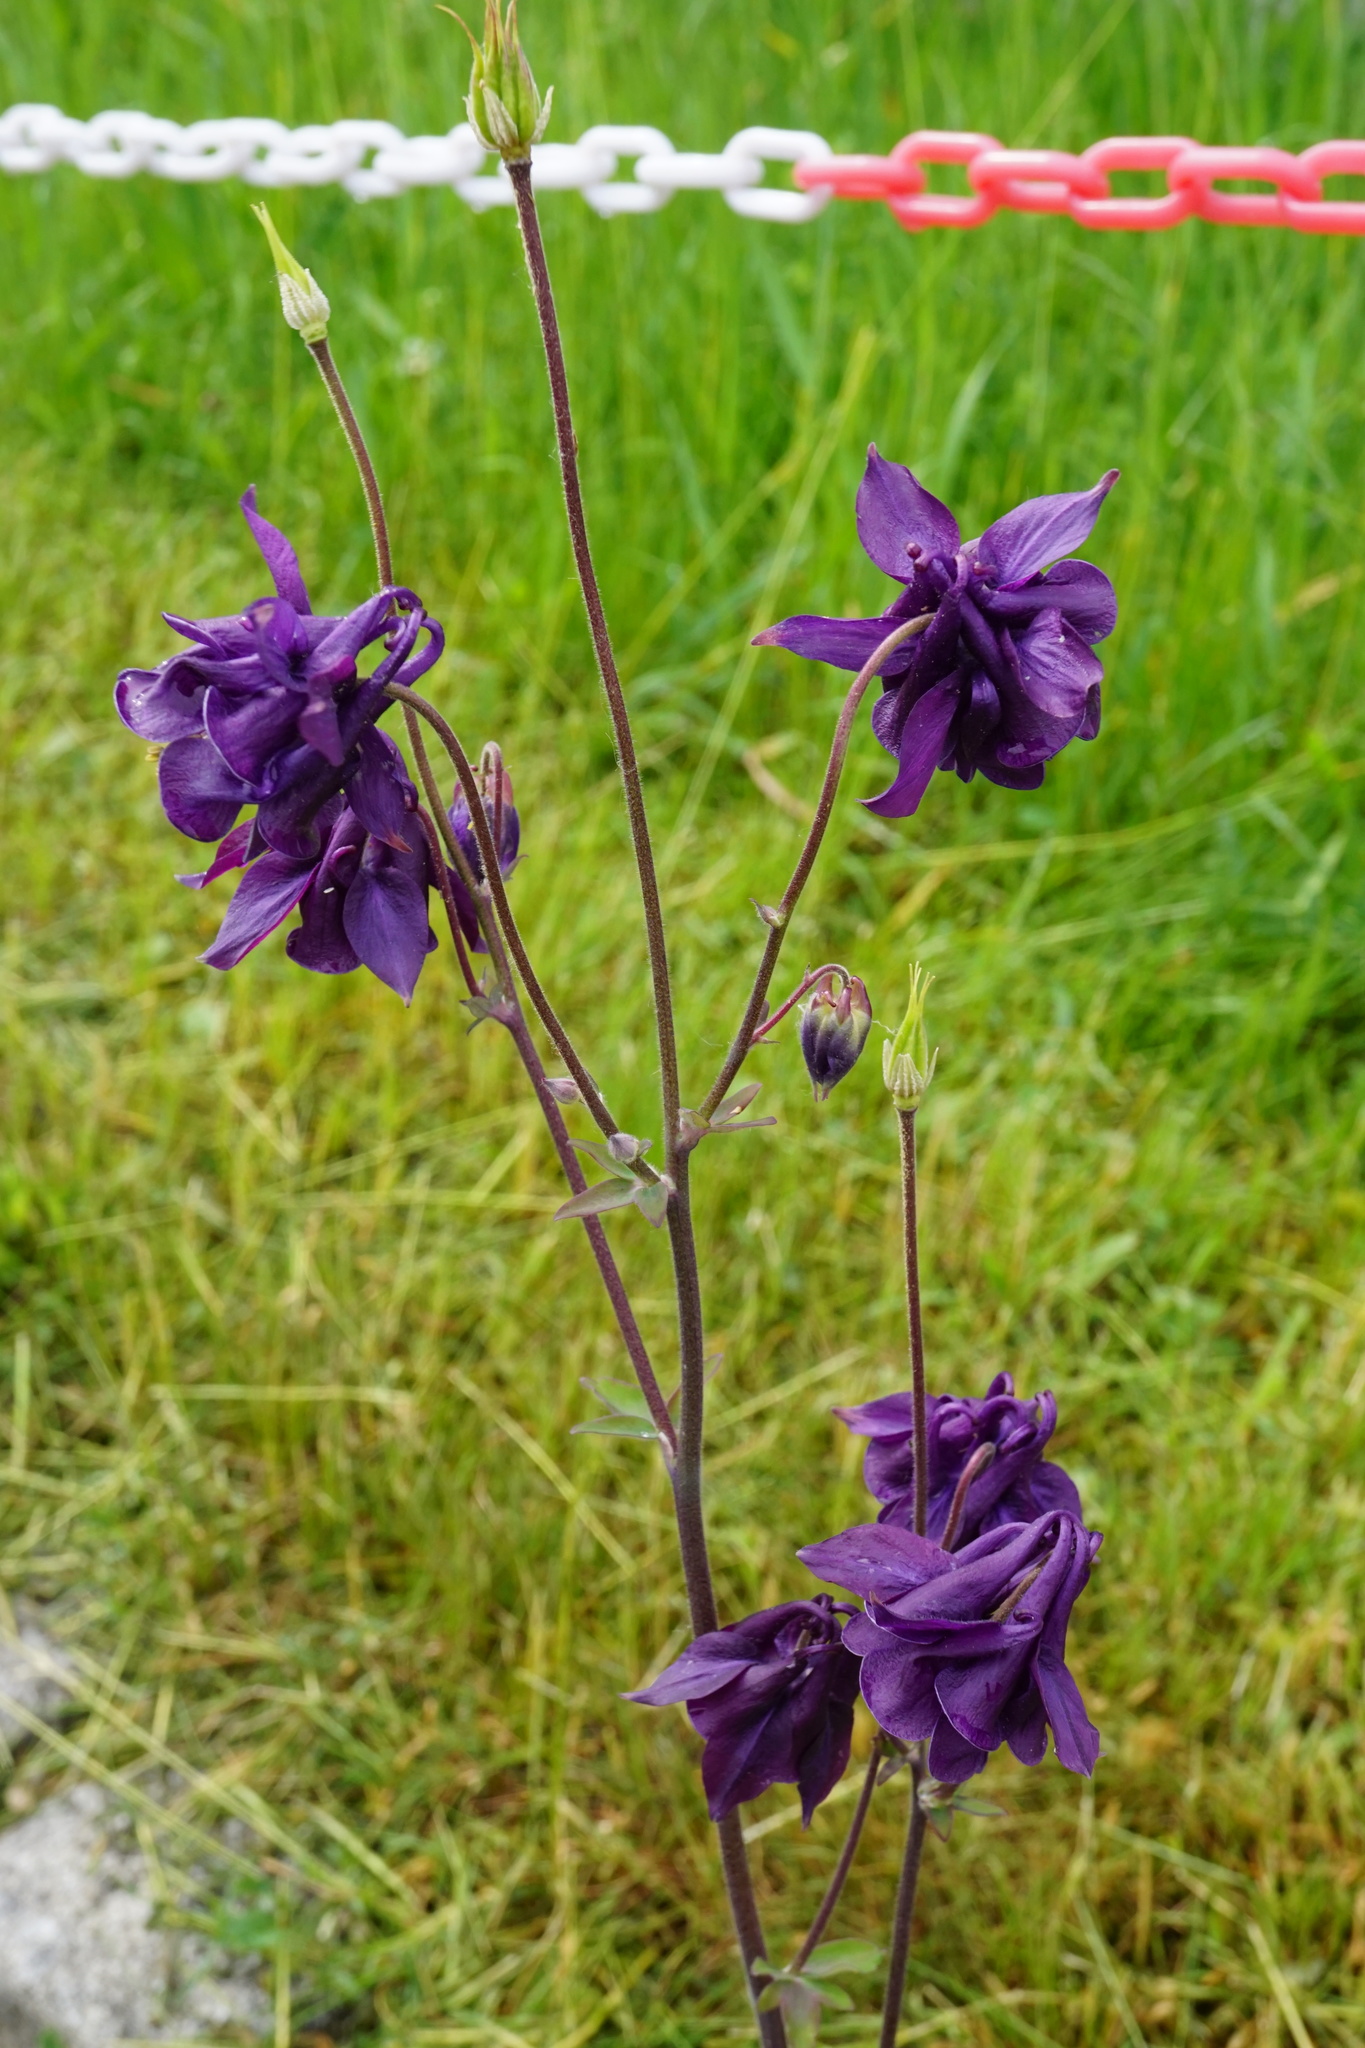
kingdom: Plantae
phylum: Tracheophyta
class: Magnoliopsida
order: Ranunculales
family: Ranunculaceae
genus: Aquilegia
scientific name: Aquilegia vulgaris
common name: Columbine
